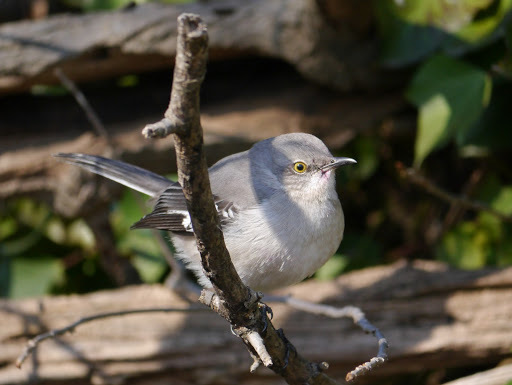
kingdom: Animalia
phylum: Chordata
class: Aves
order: Passeriformes
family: Mimidae
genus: Mimus
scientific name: Mimus polyglottos
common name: Northern mockingbird
